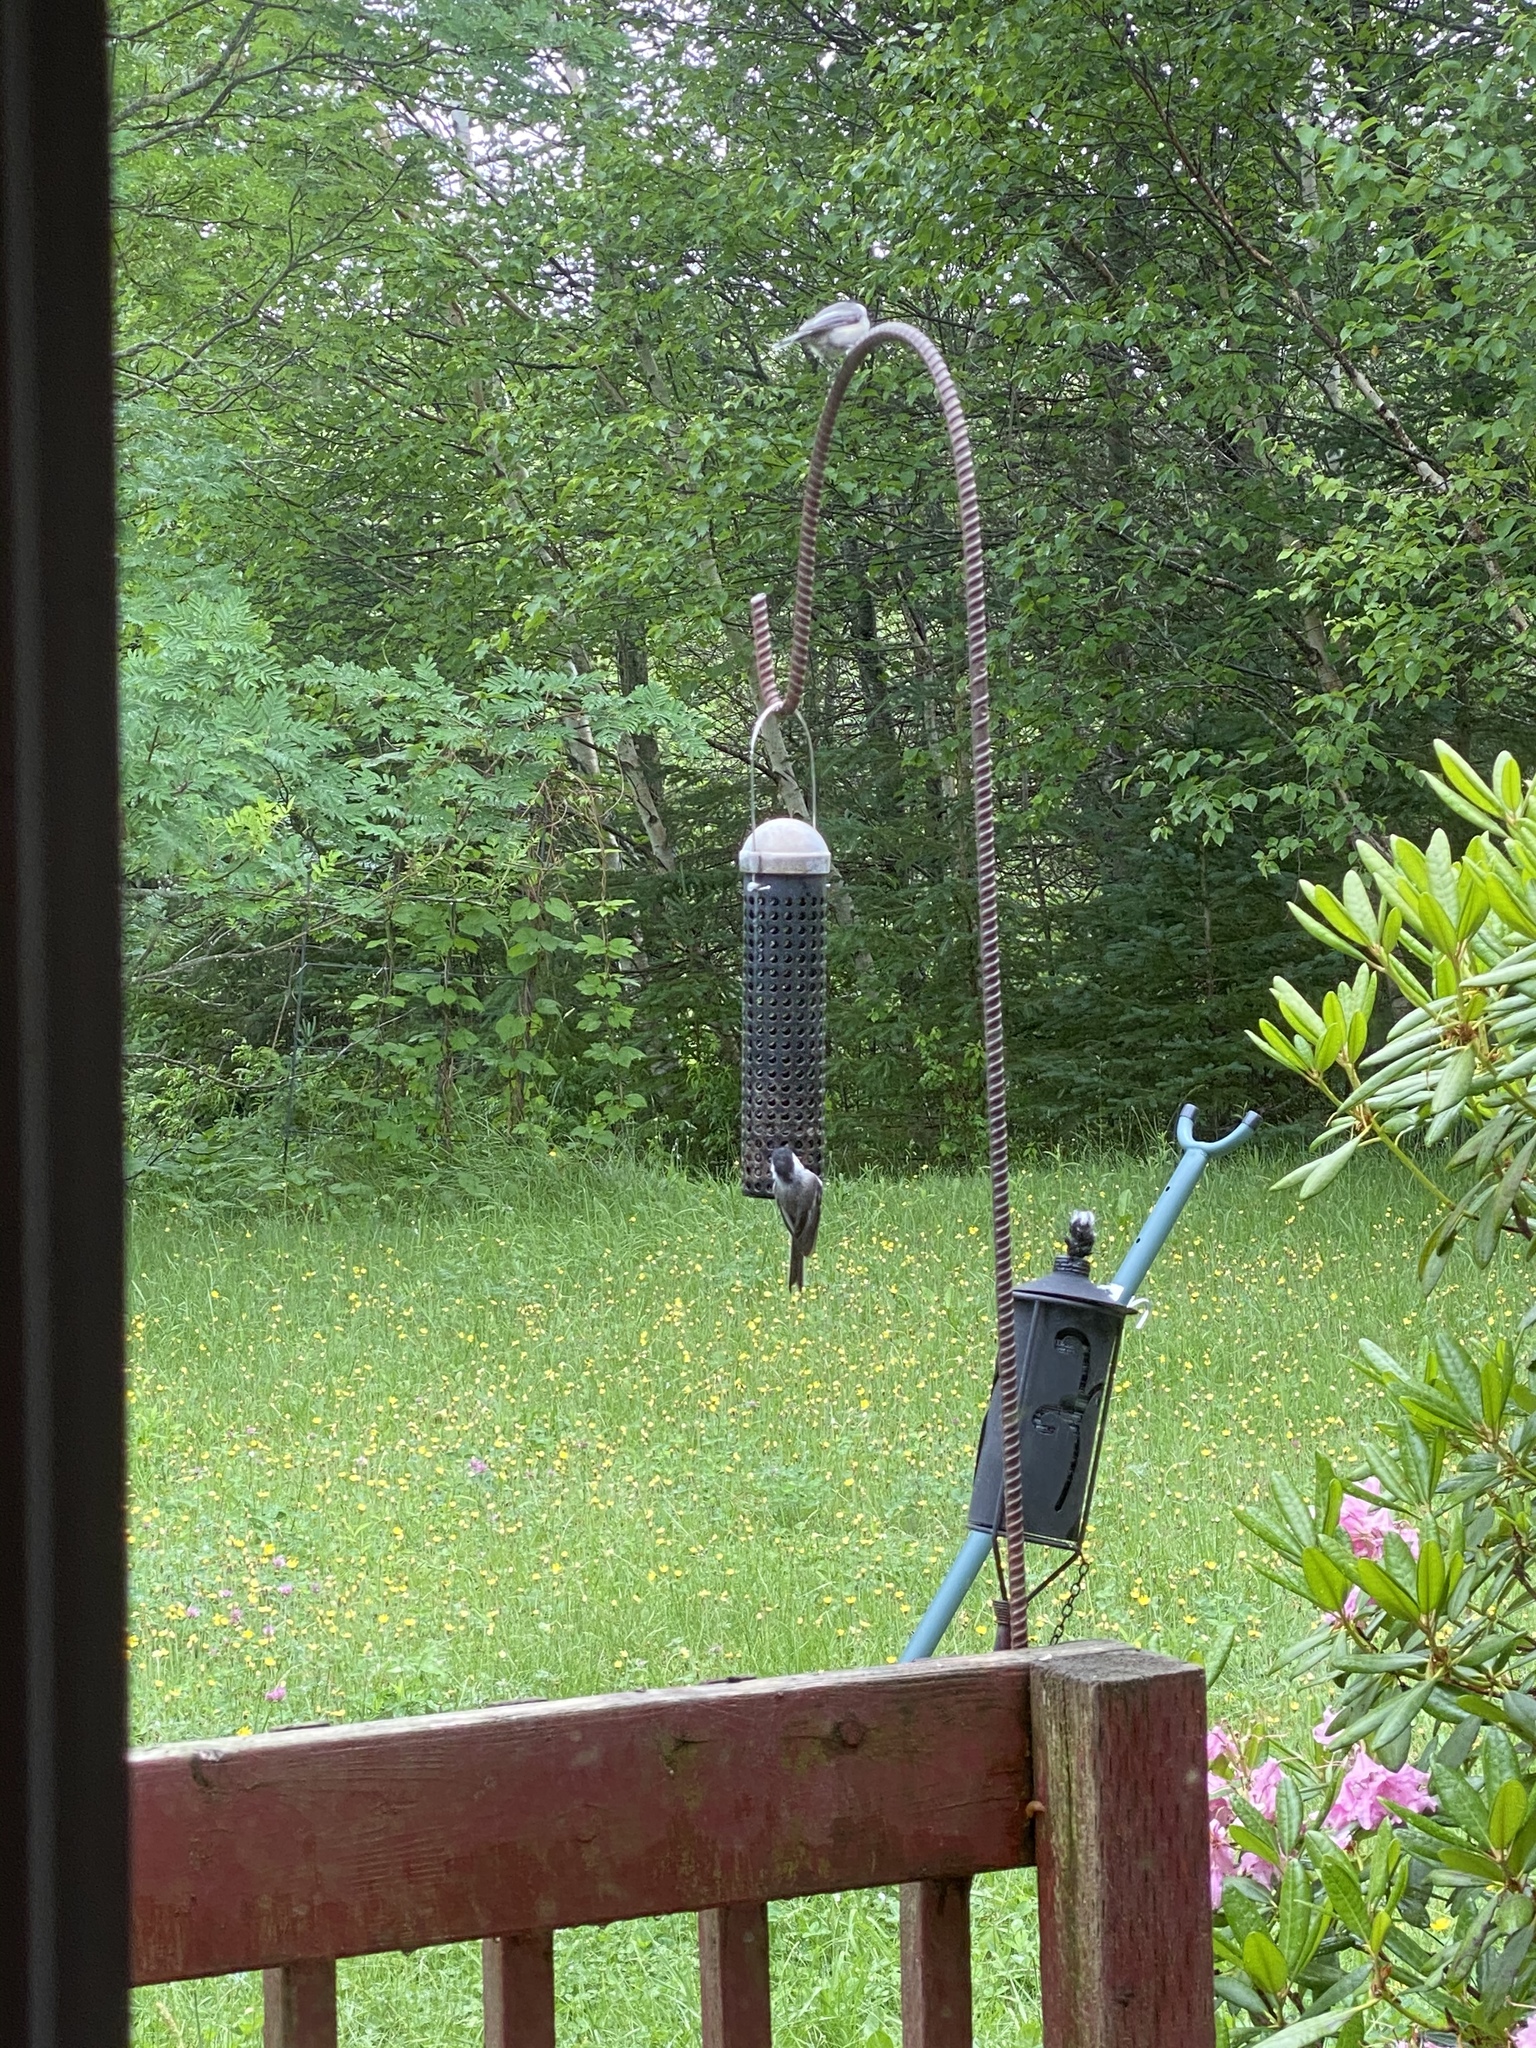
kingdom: Animalia
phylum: Chordata
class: Aves
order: Passeriformes
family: Paridae
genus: Poecile
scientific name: Poecile atricapillus
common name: Black-capped chickadee
